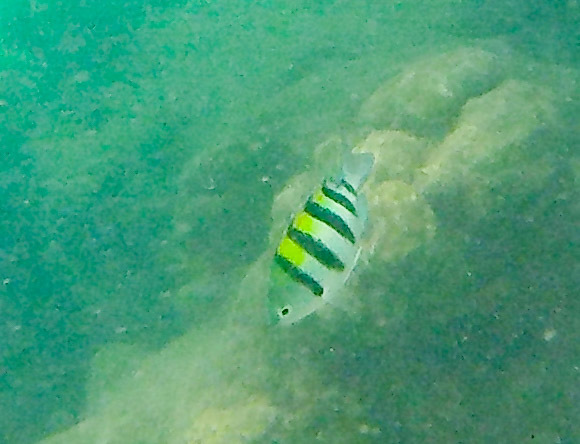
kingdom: Animalia
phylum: Chordata
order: Perciformes
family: Pomacentridae
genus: Abudefduf
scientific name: Abudefduf vaigiensis
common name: Indo-pacific sergeant
